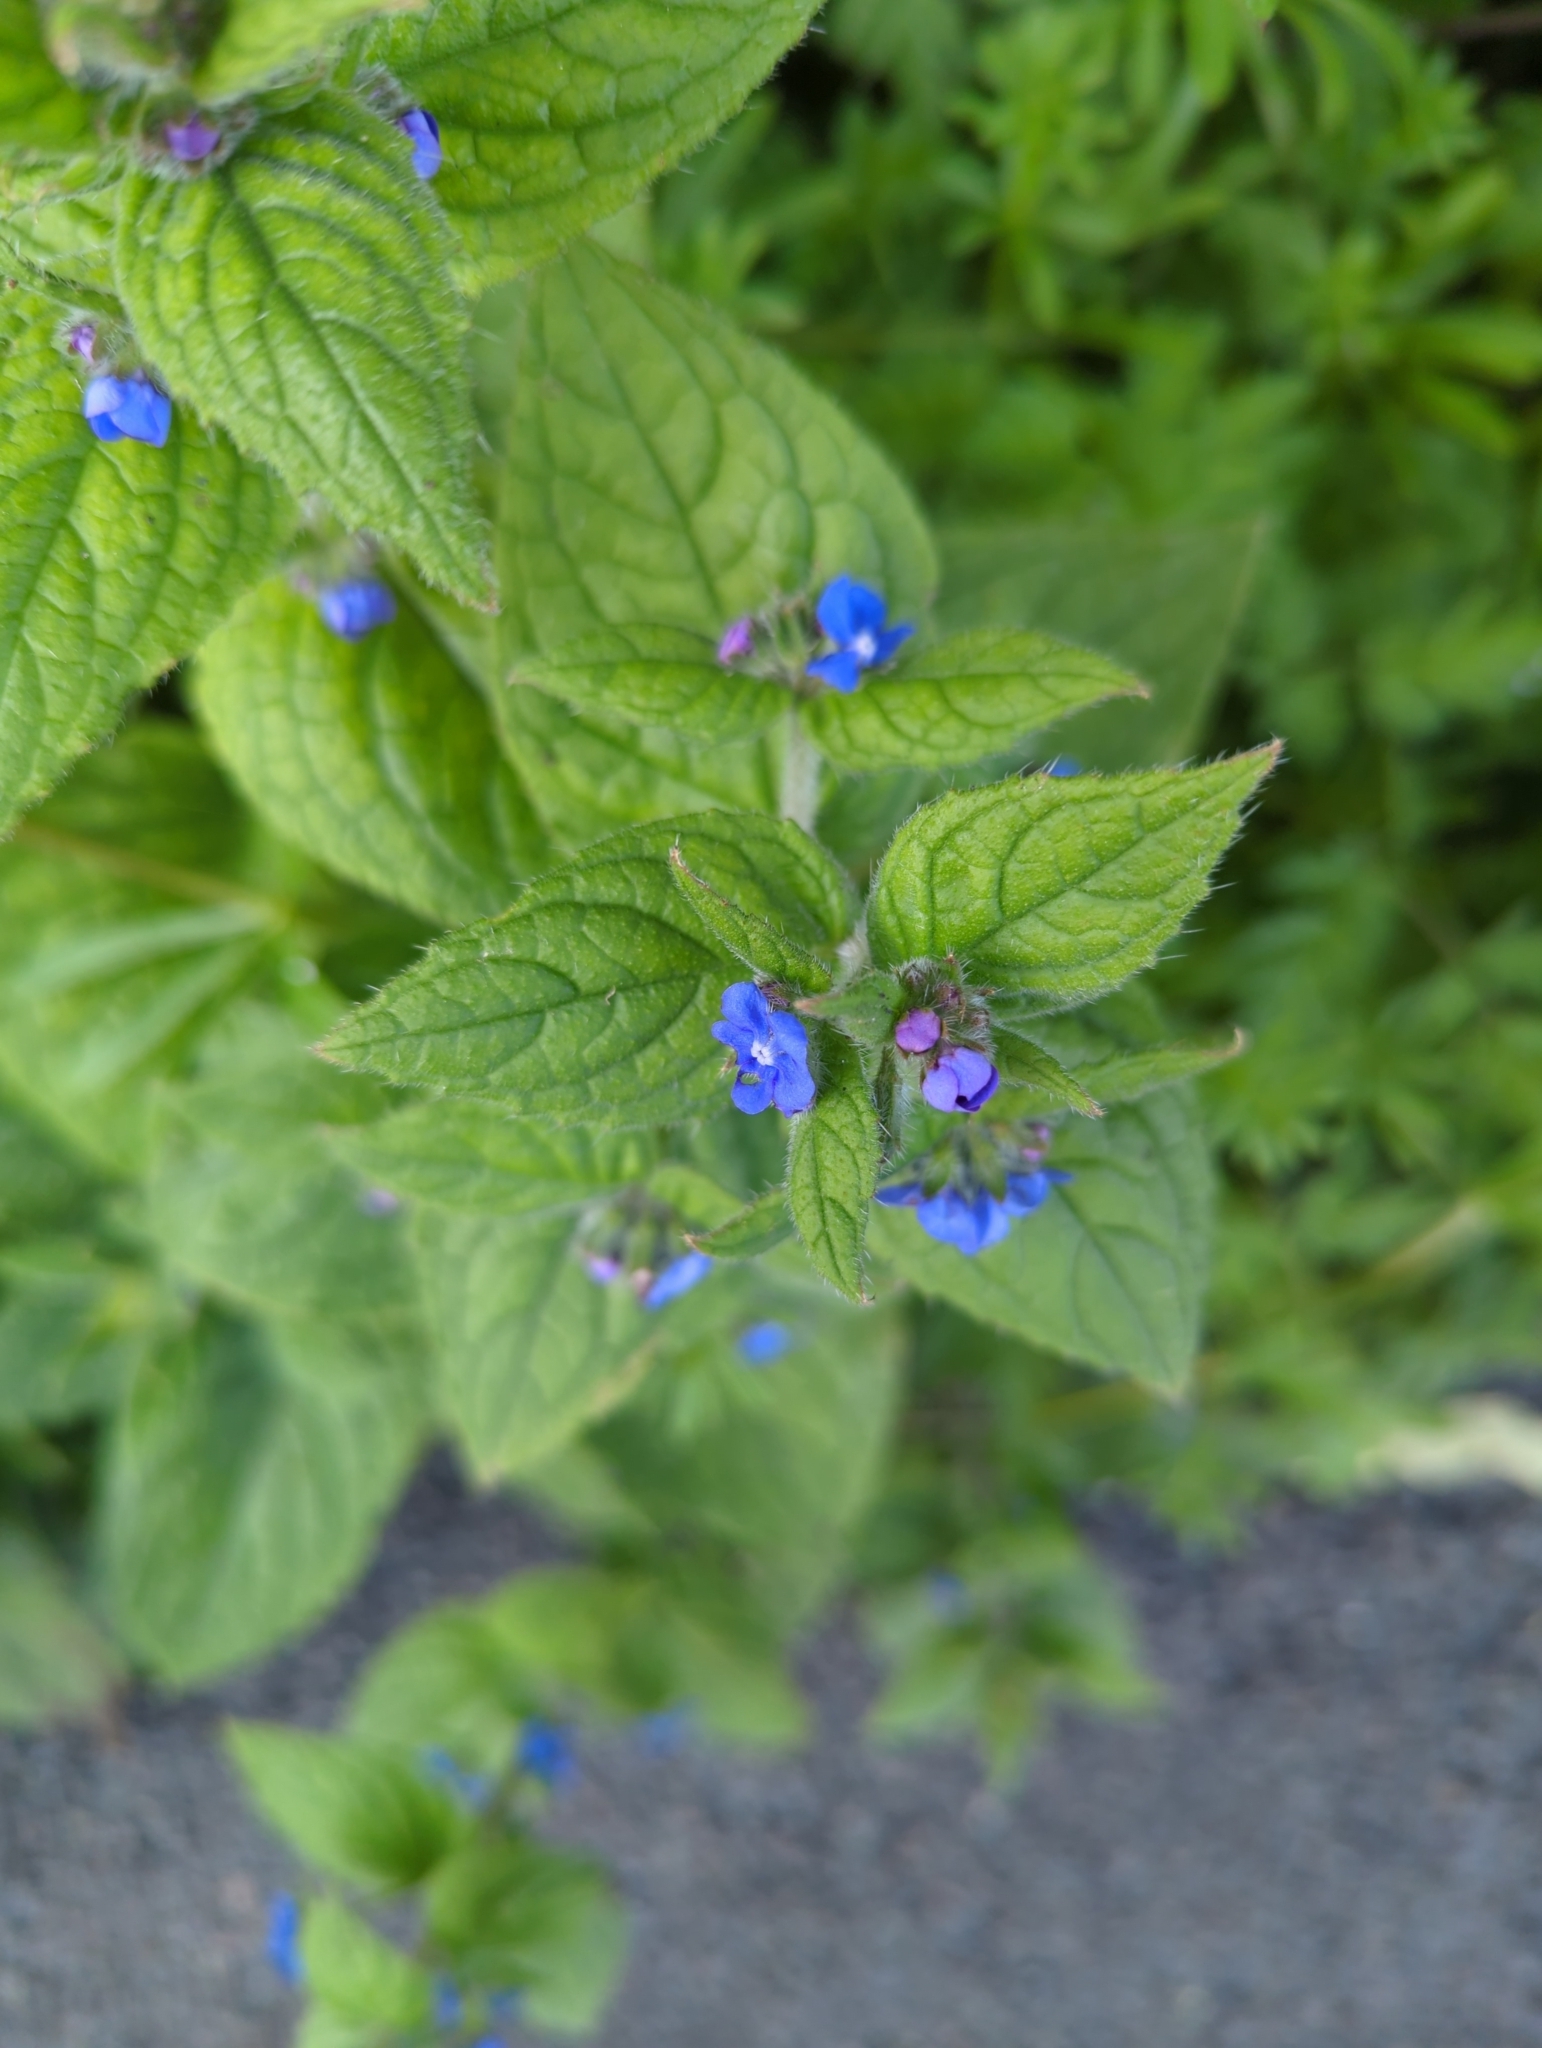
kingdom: Plantae
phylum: Tracheophyta
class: Magnoliopsida
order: Boraginales
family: Boraginaceae
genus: Pentaglottis
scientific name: Pentaglottis sempervirens
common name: Green alkanet
